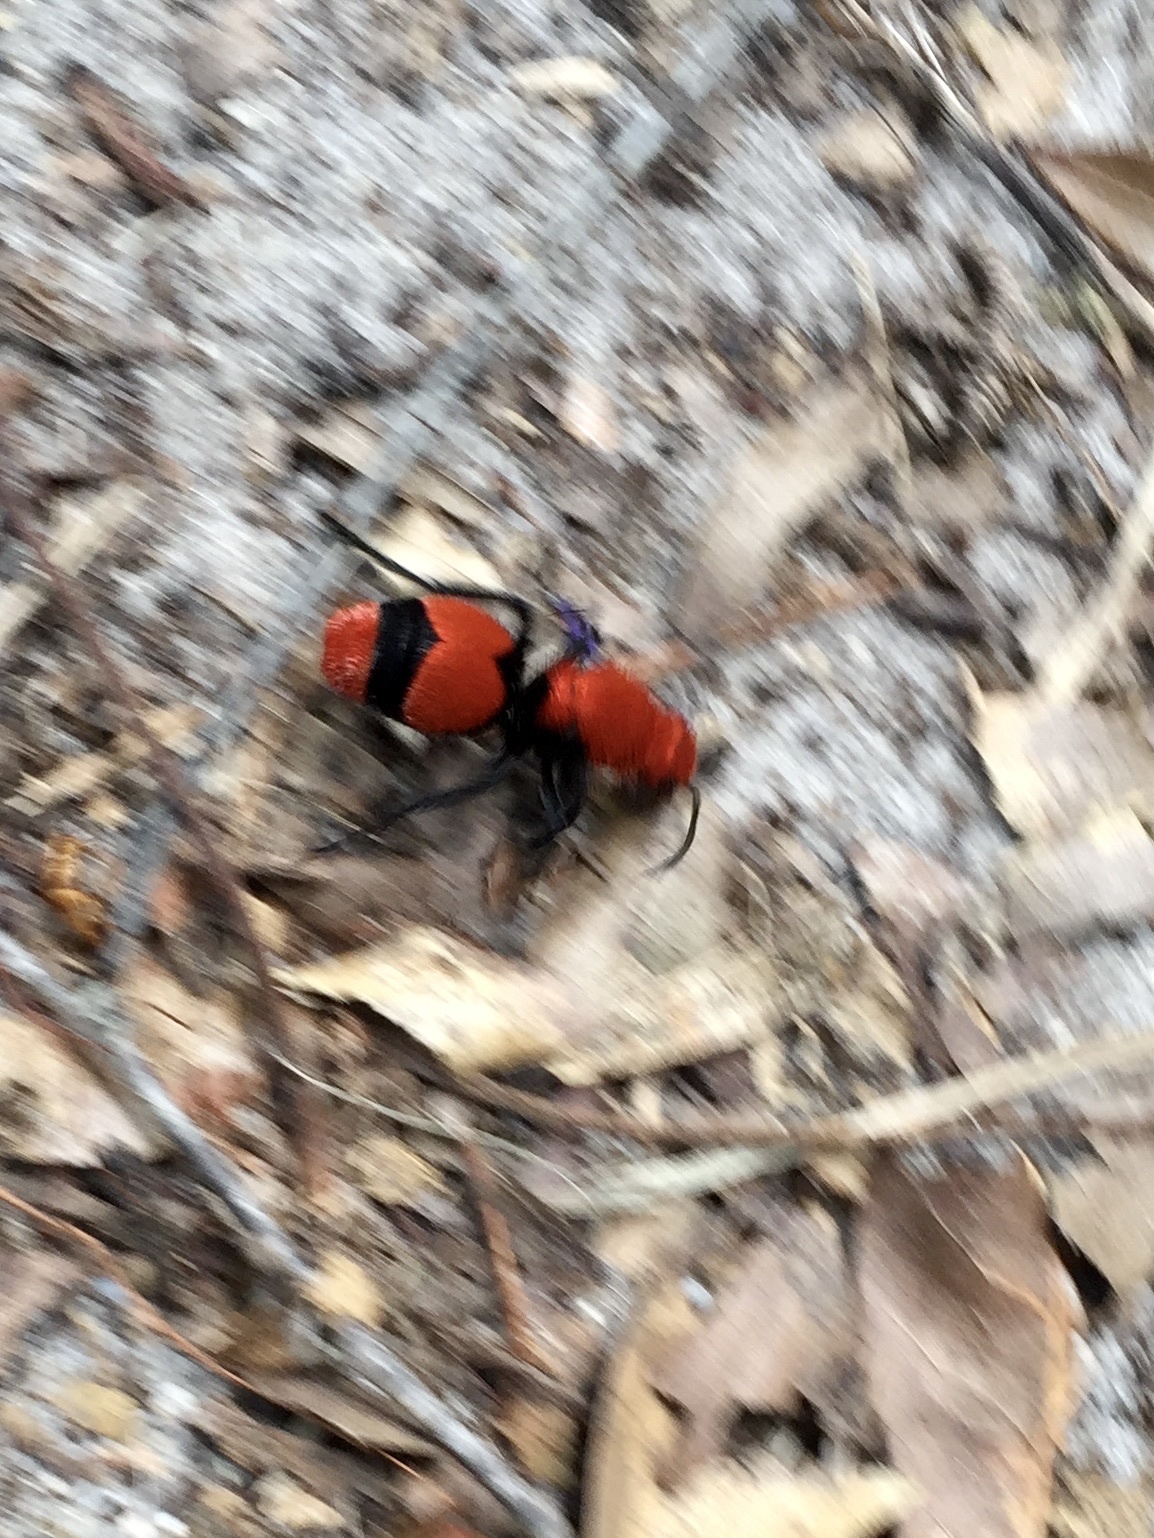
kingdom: Animalia
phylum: Arthropoda
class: Insecta
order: Hymenoptera
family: Mutillidae
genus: Dasymutilla
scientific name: Dasymutilla occidentalis
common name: Common eastern velvet ant
